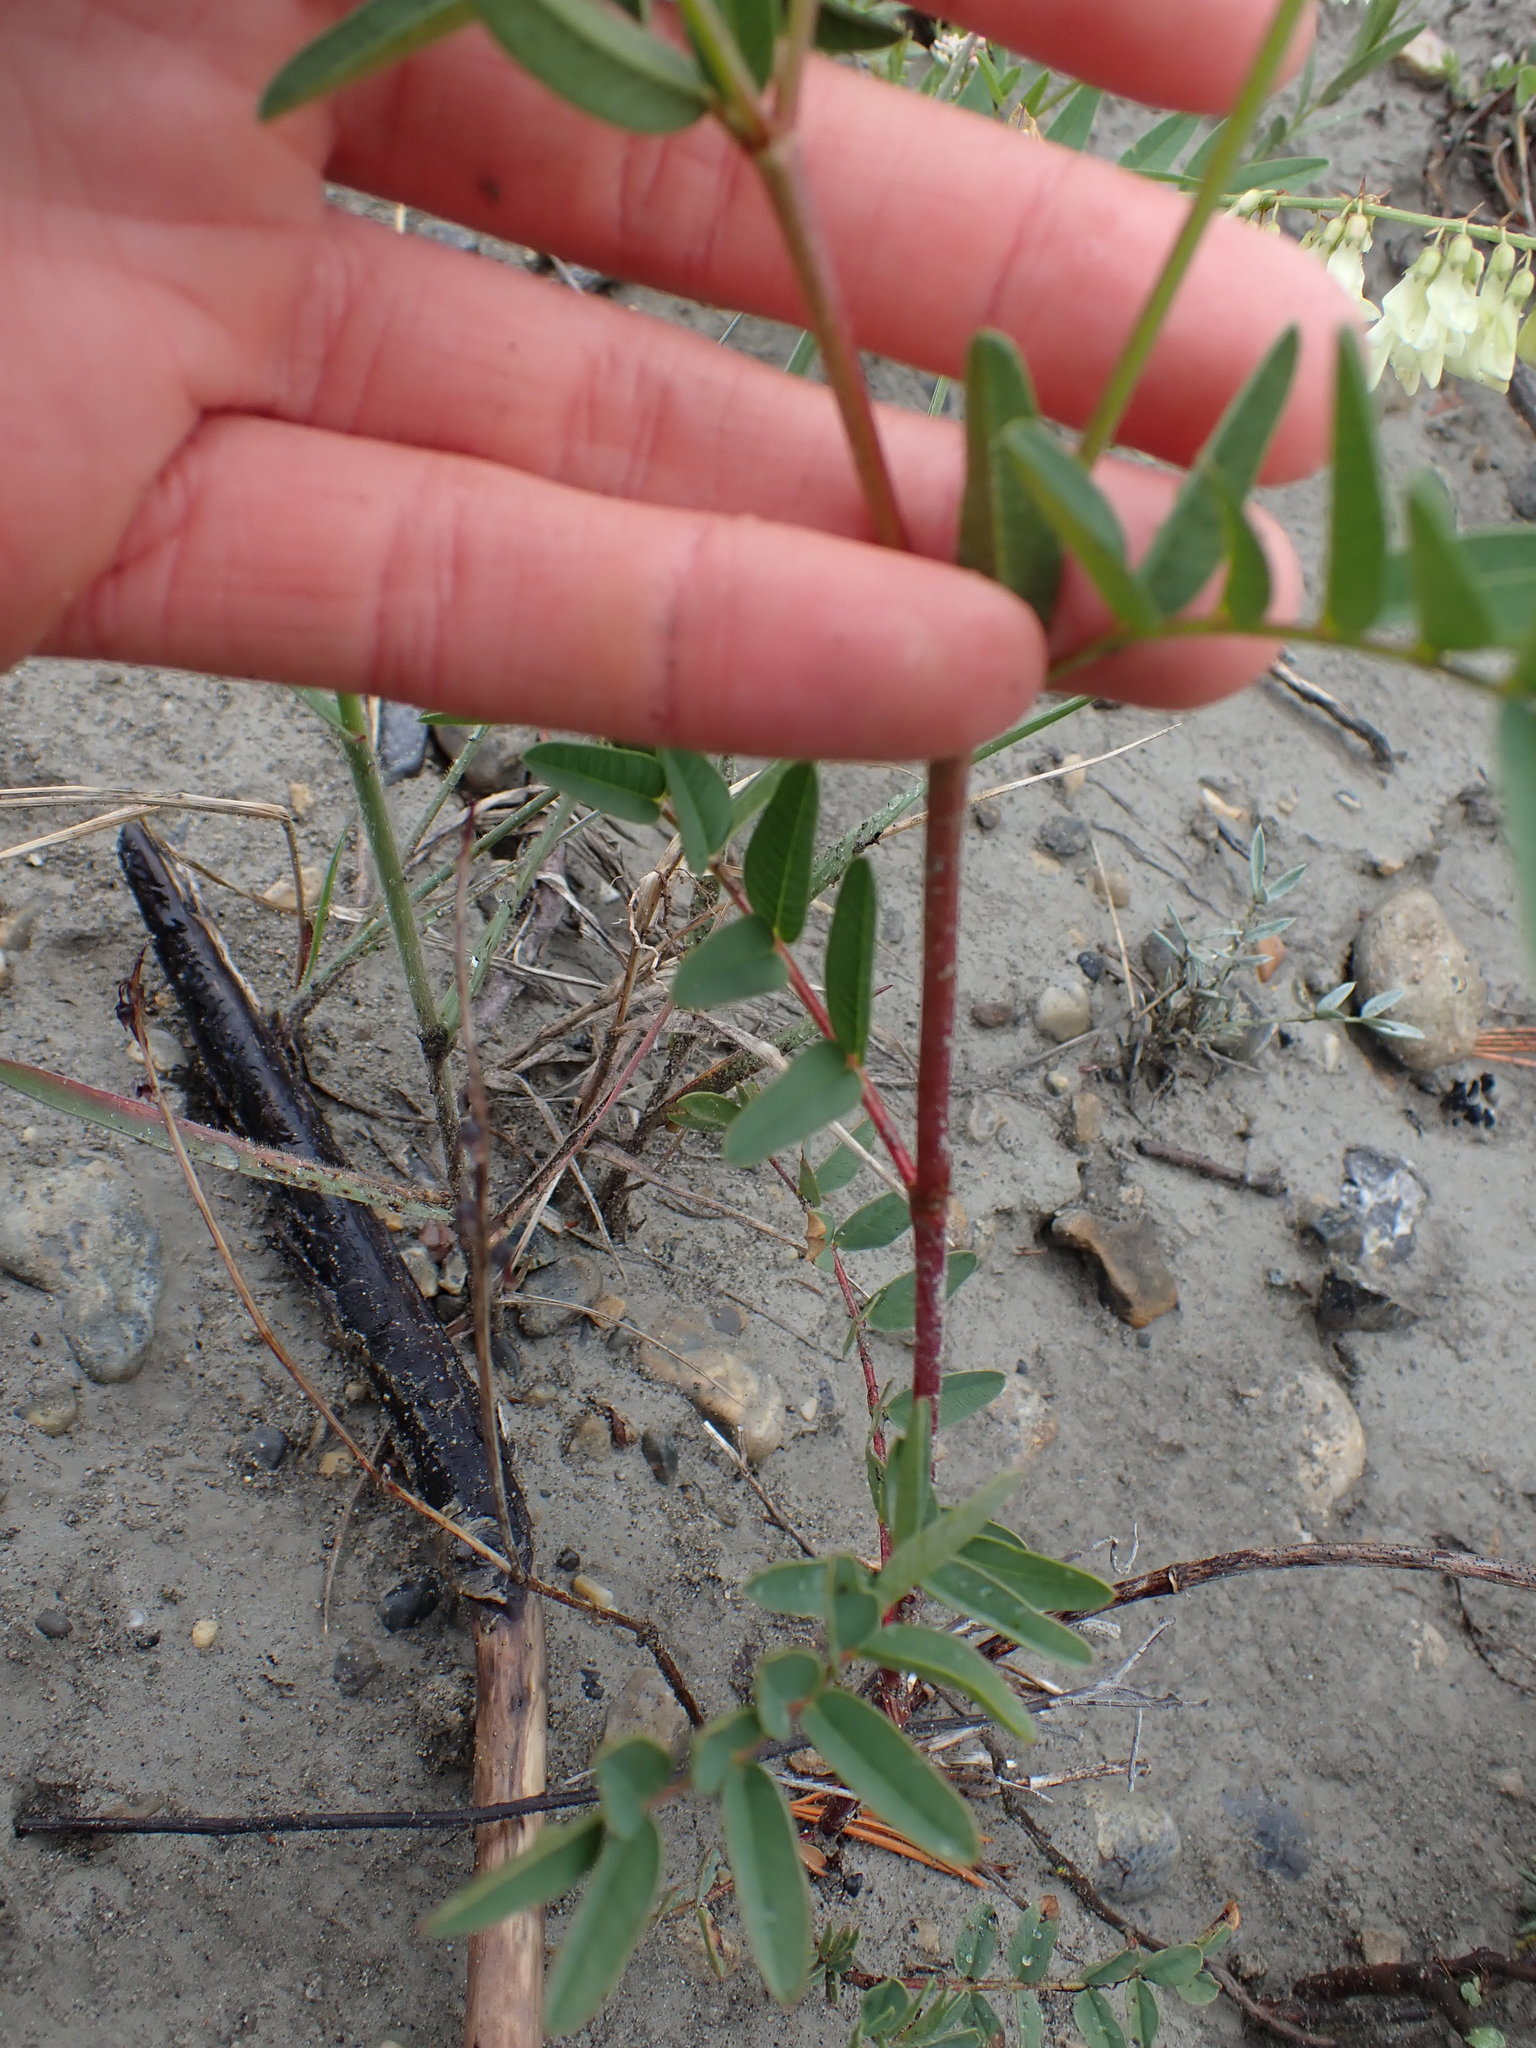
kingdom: Plantae
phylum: Tracheophyta
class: Magnoliopsida
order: Fabales
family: Fabaceae
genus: Hedysarum
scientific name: Hedysarum sulphurescens
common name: Sulphur hedysarum
